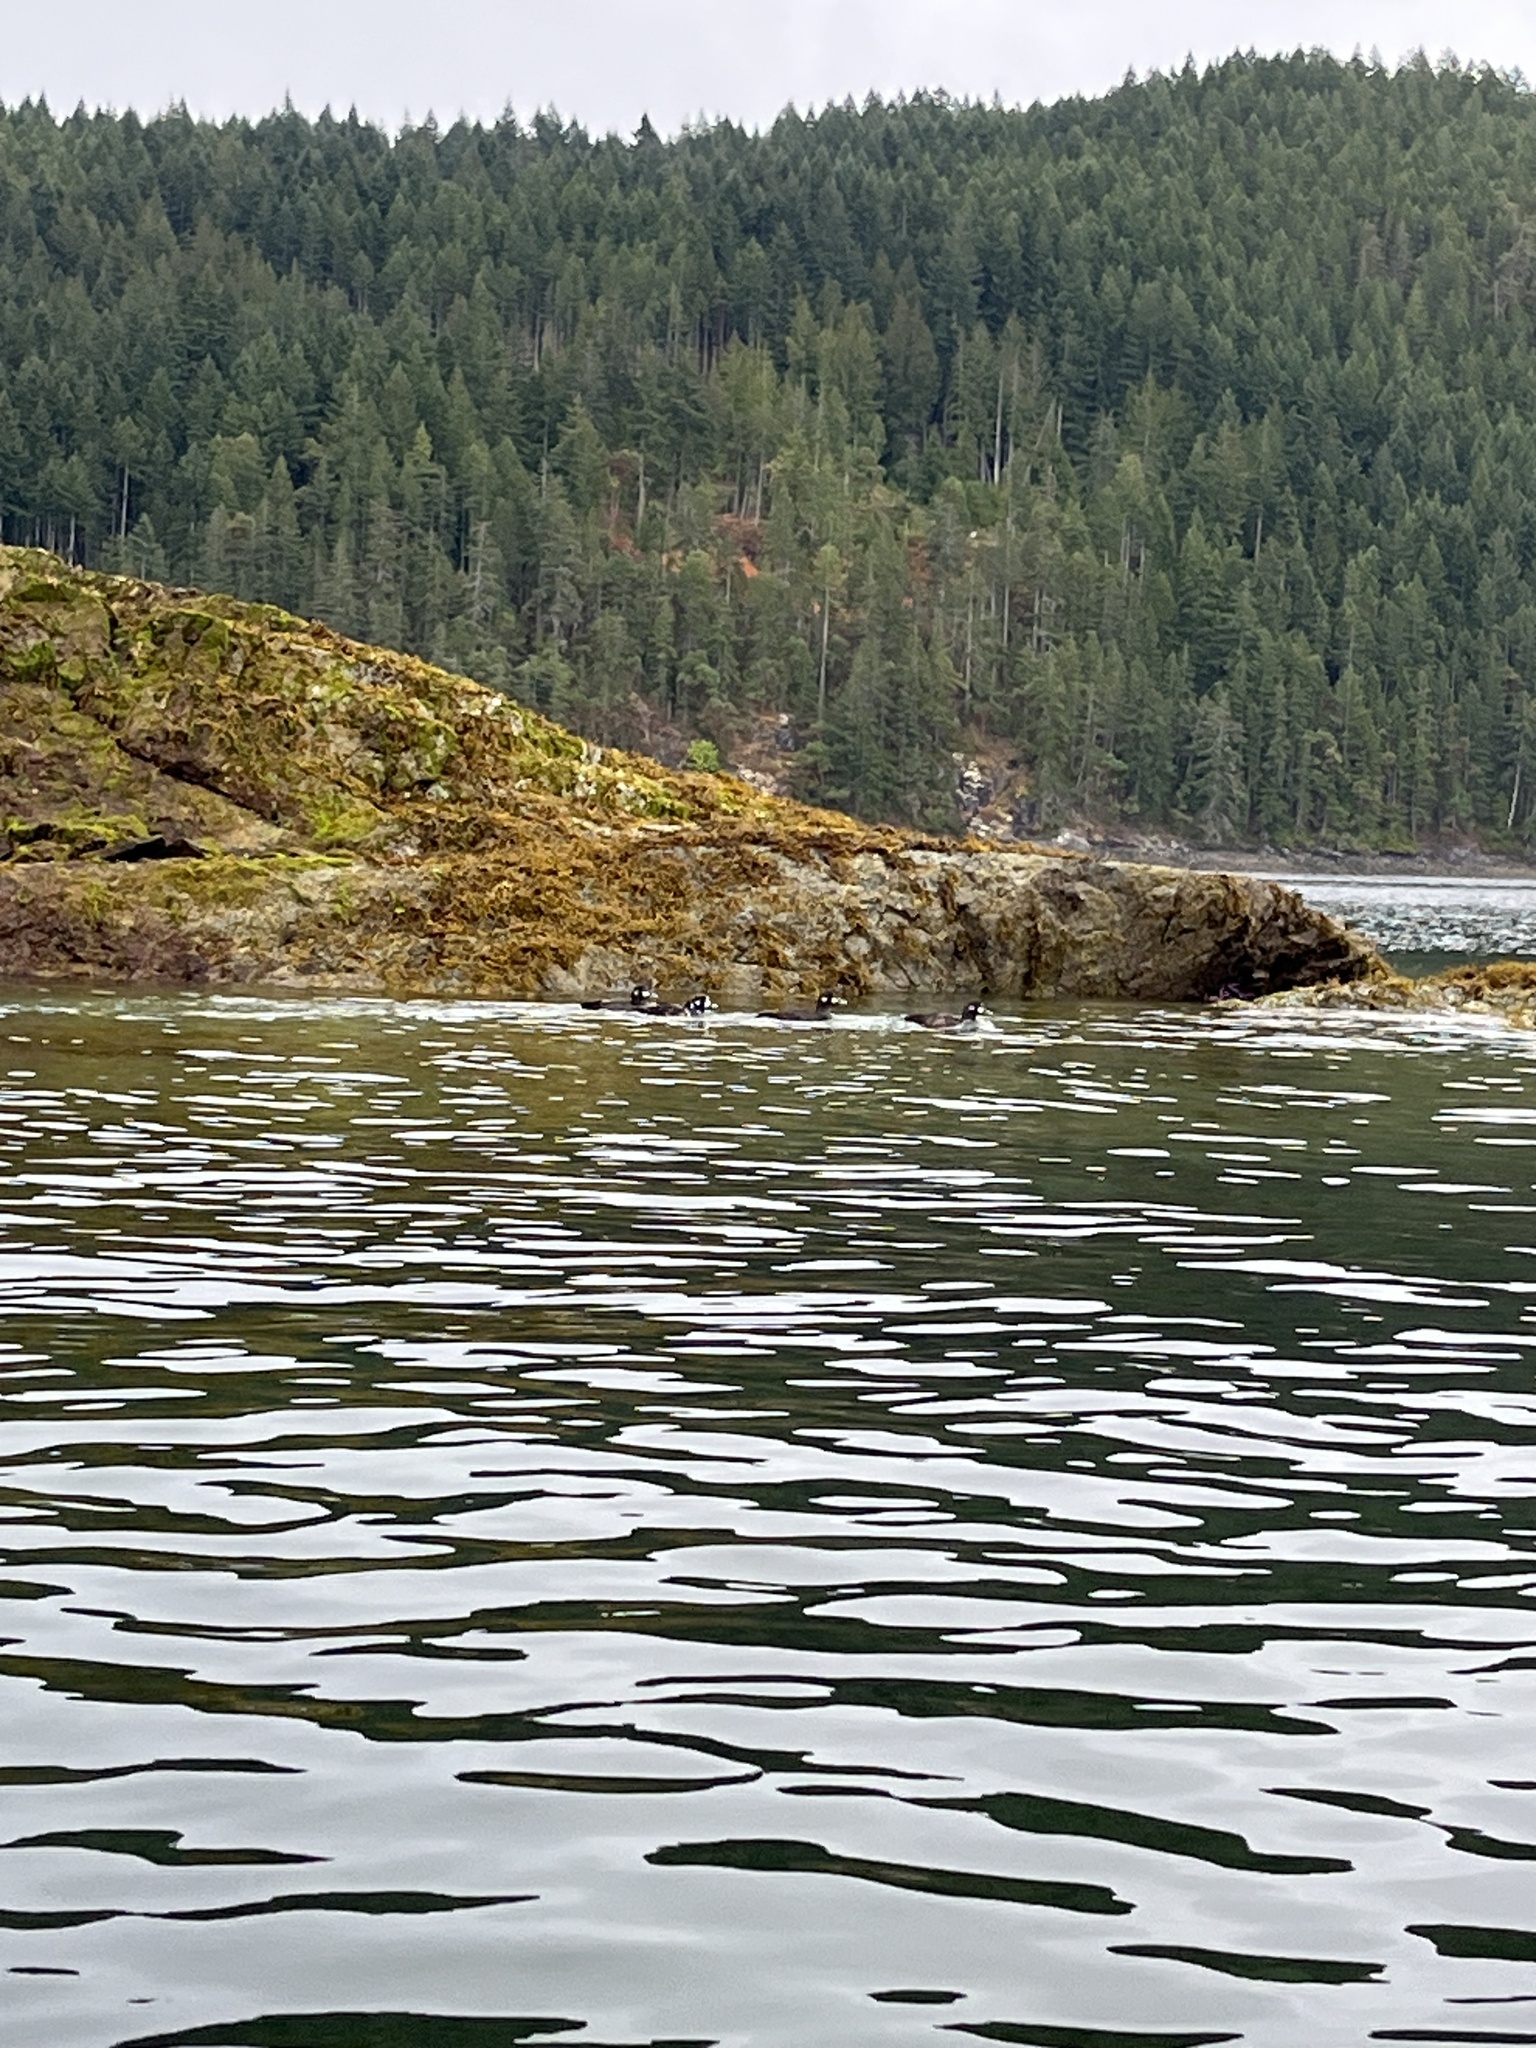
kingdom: Animalia
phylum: Chordata
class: Aves
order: Anseriformes
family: Anatidae
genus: Histrionicus
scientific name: Histrionicus histrionicus
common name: Harlequin duck
